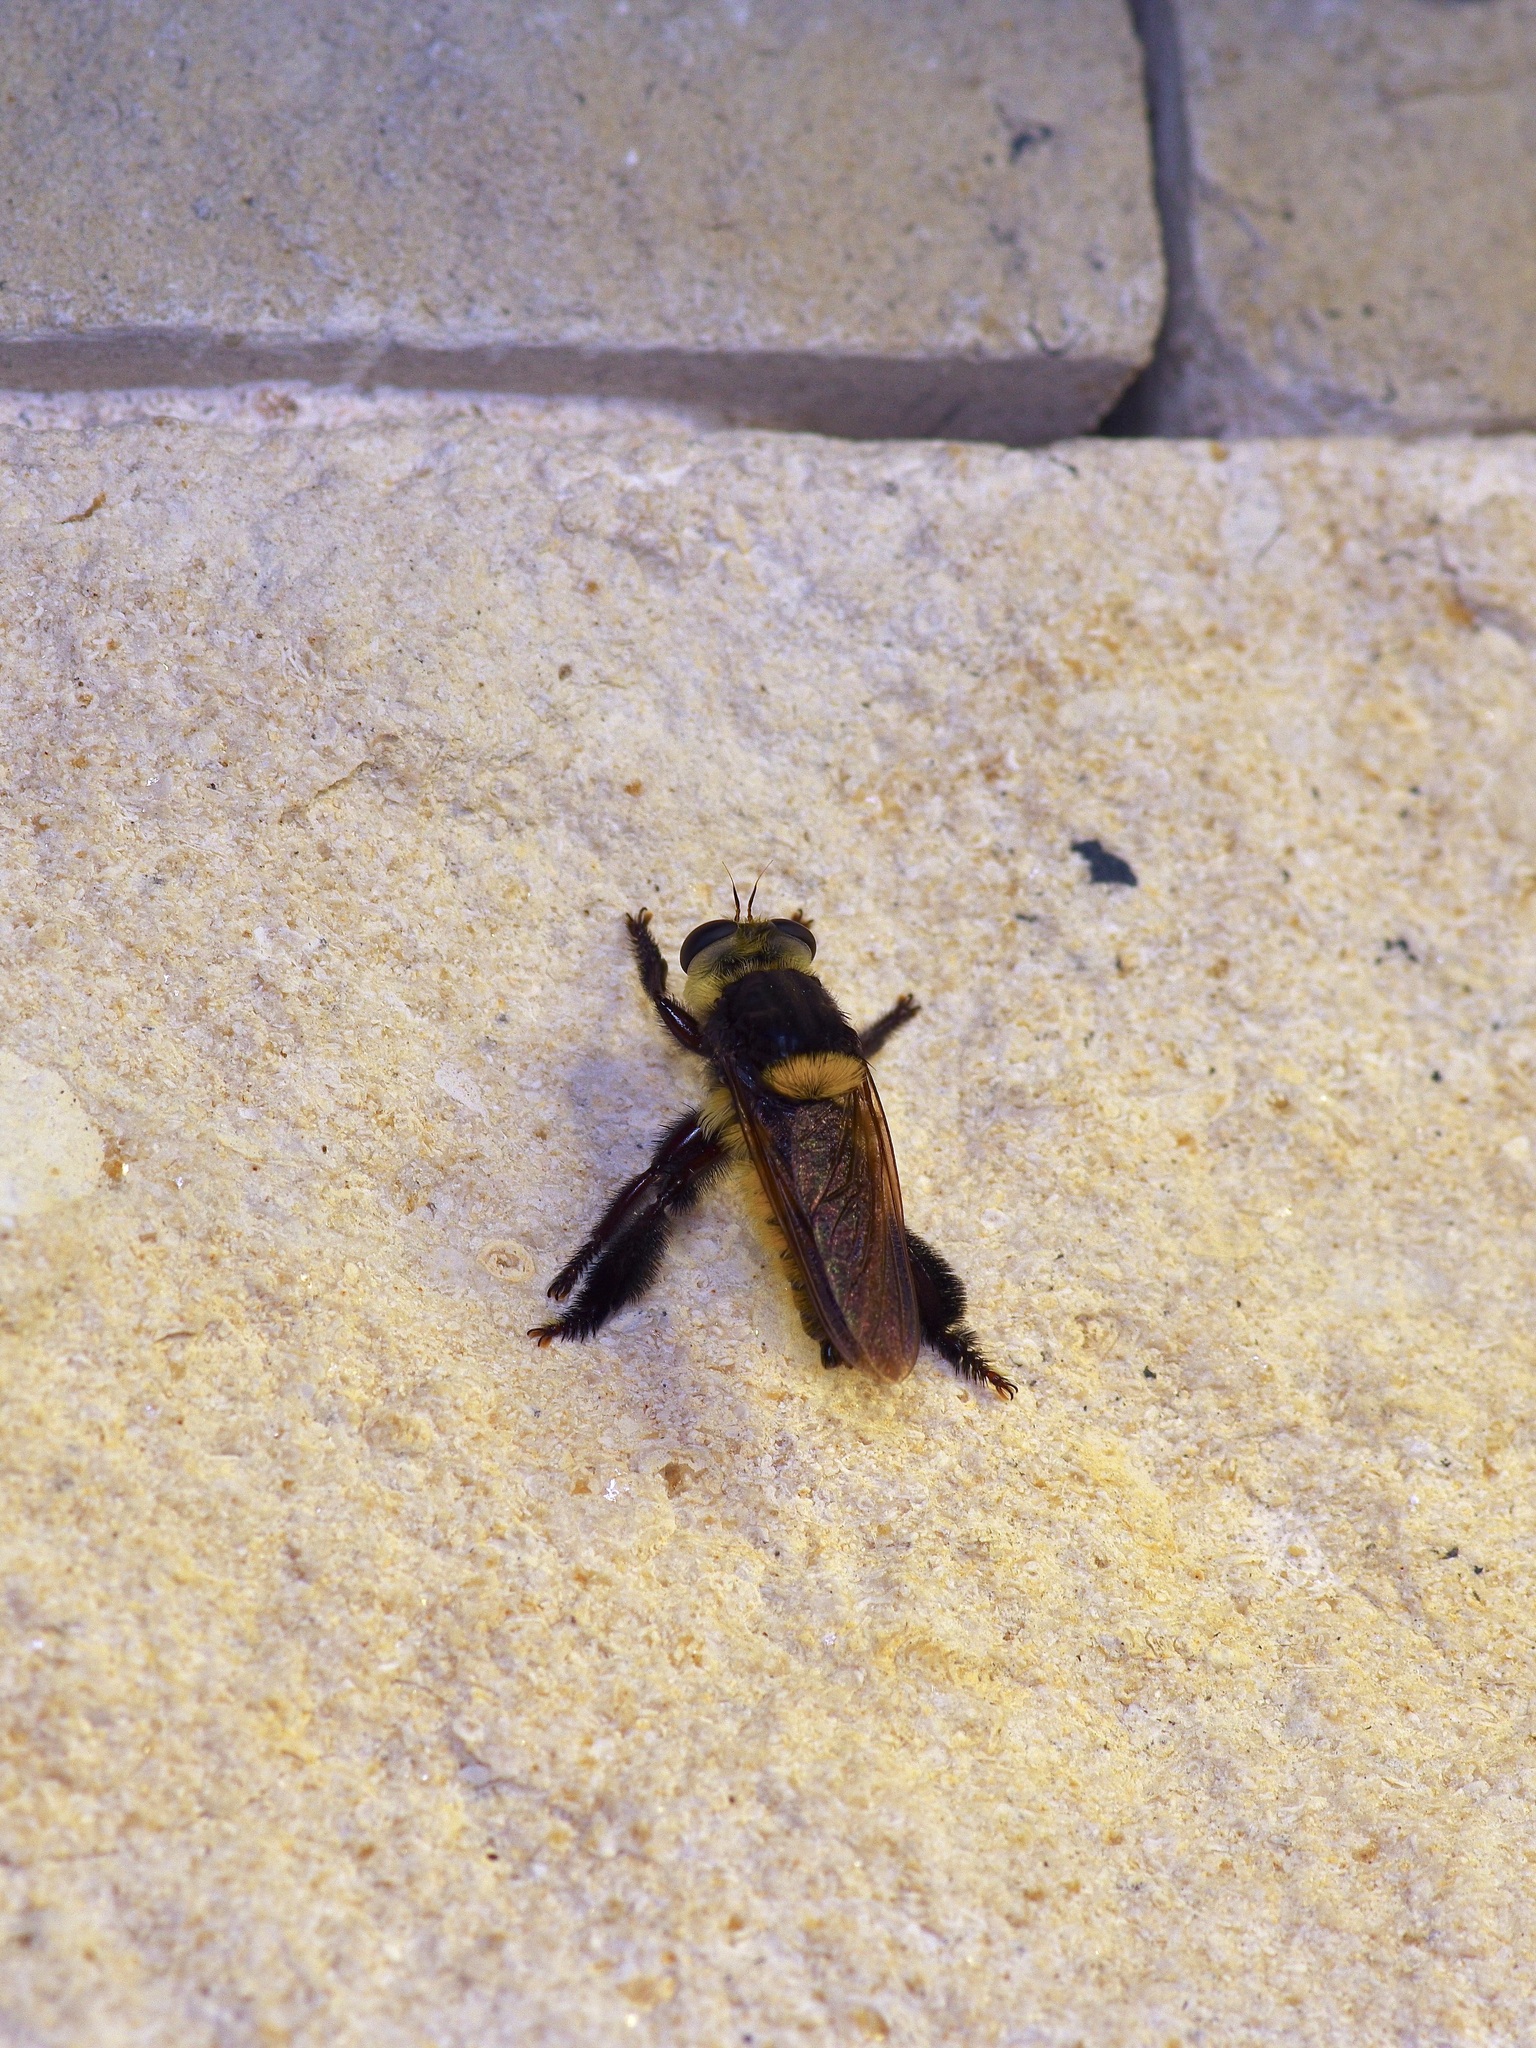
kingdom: Animalia
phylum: Arthropoda
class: Insecta
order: Diptera
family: Asilidae
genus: Mallophora
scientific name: Mallophora fautrix
